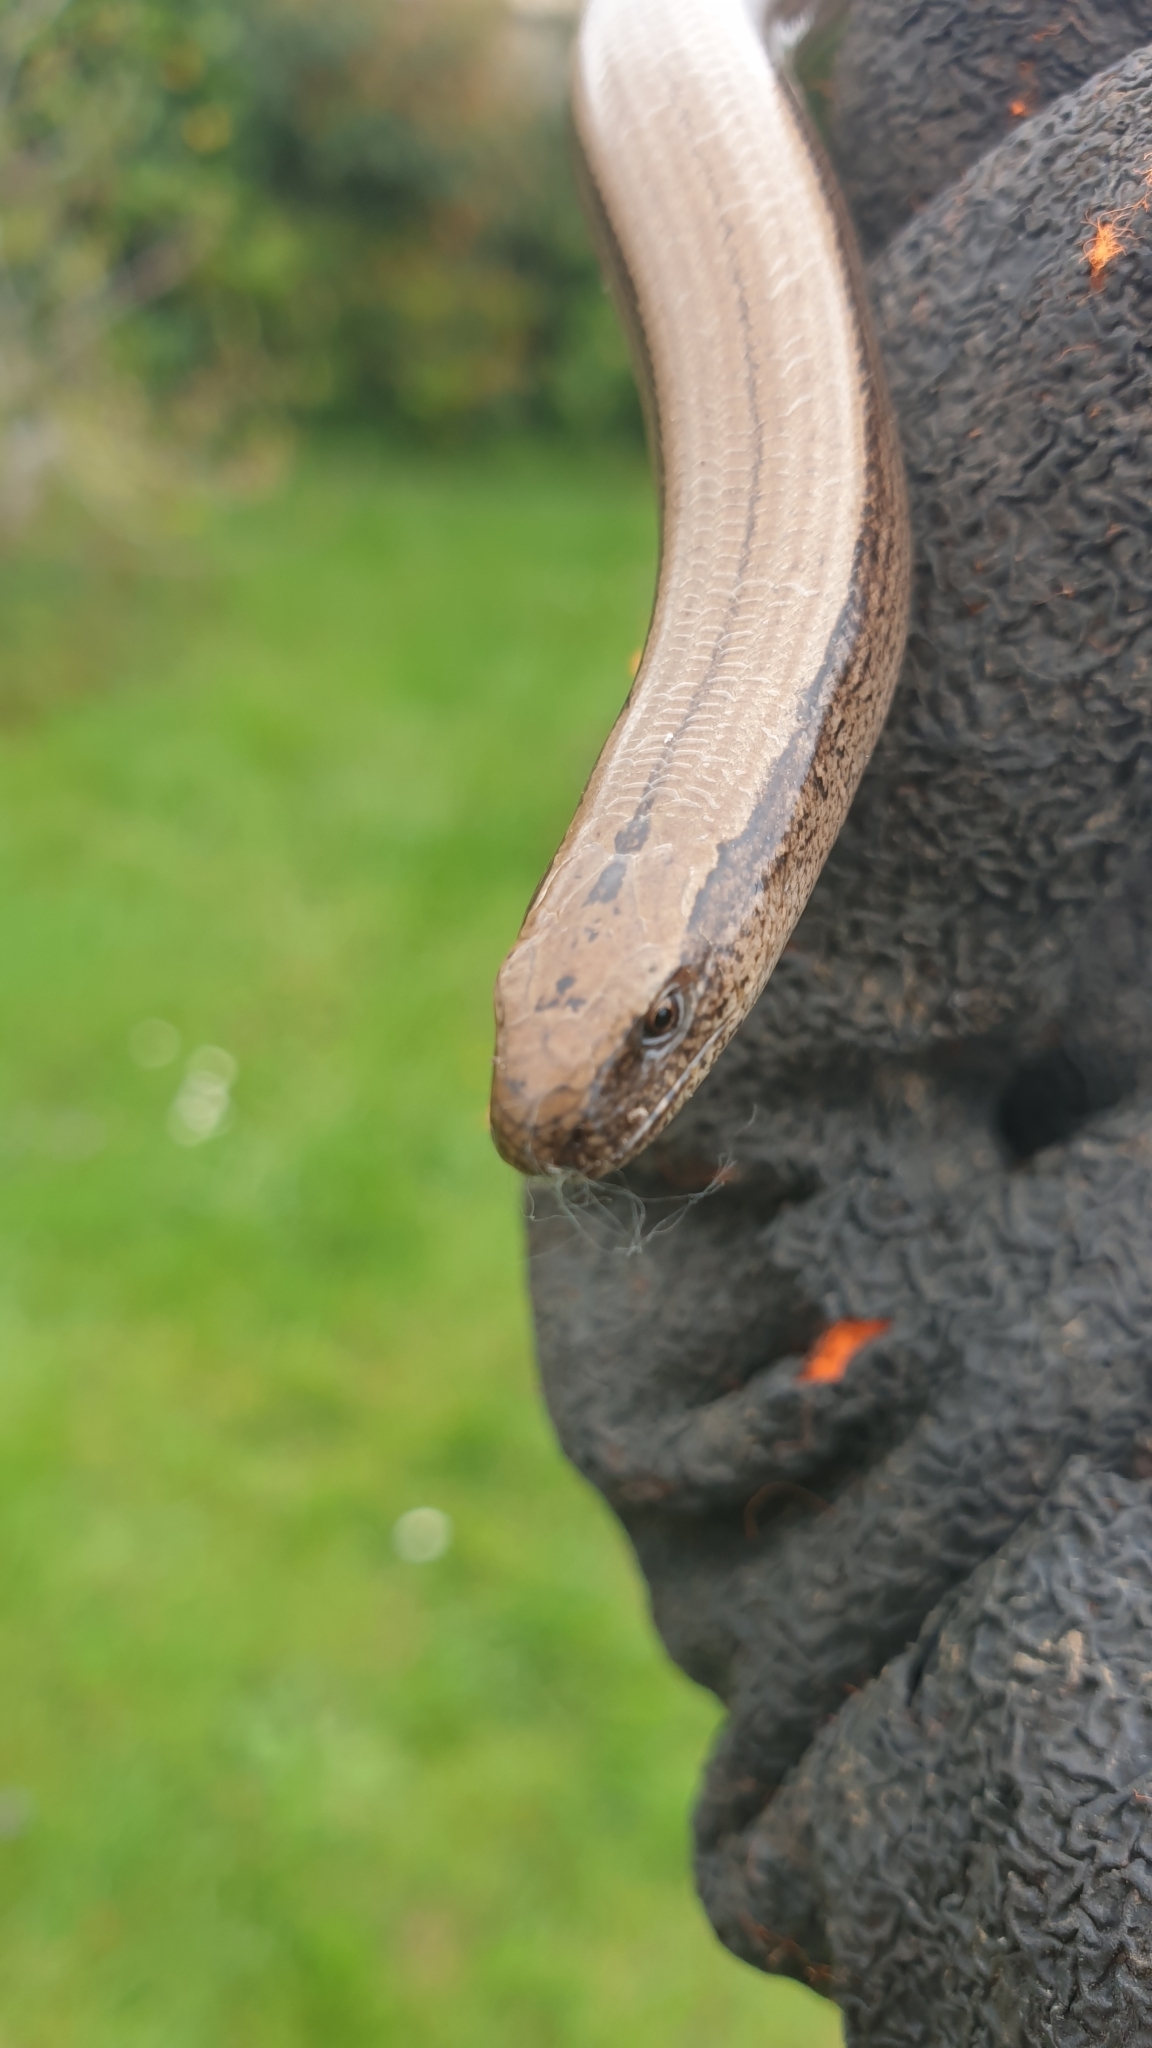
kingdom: Animalia
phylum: Chordata
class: Squamata
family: Anguidae
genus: Anguis
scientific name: Anguis fragilis
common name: Slow worm
